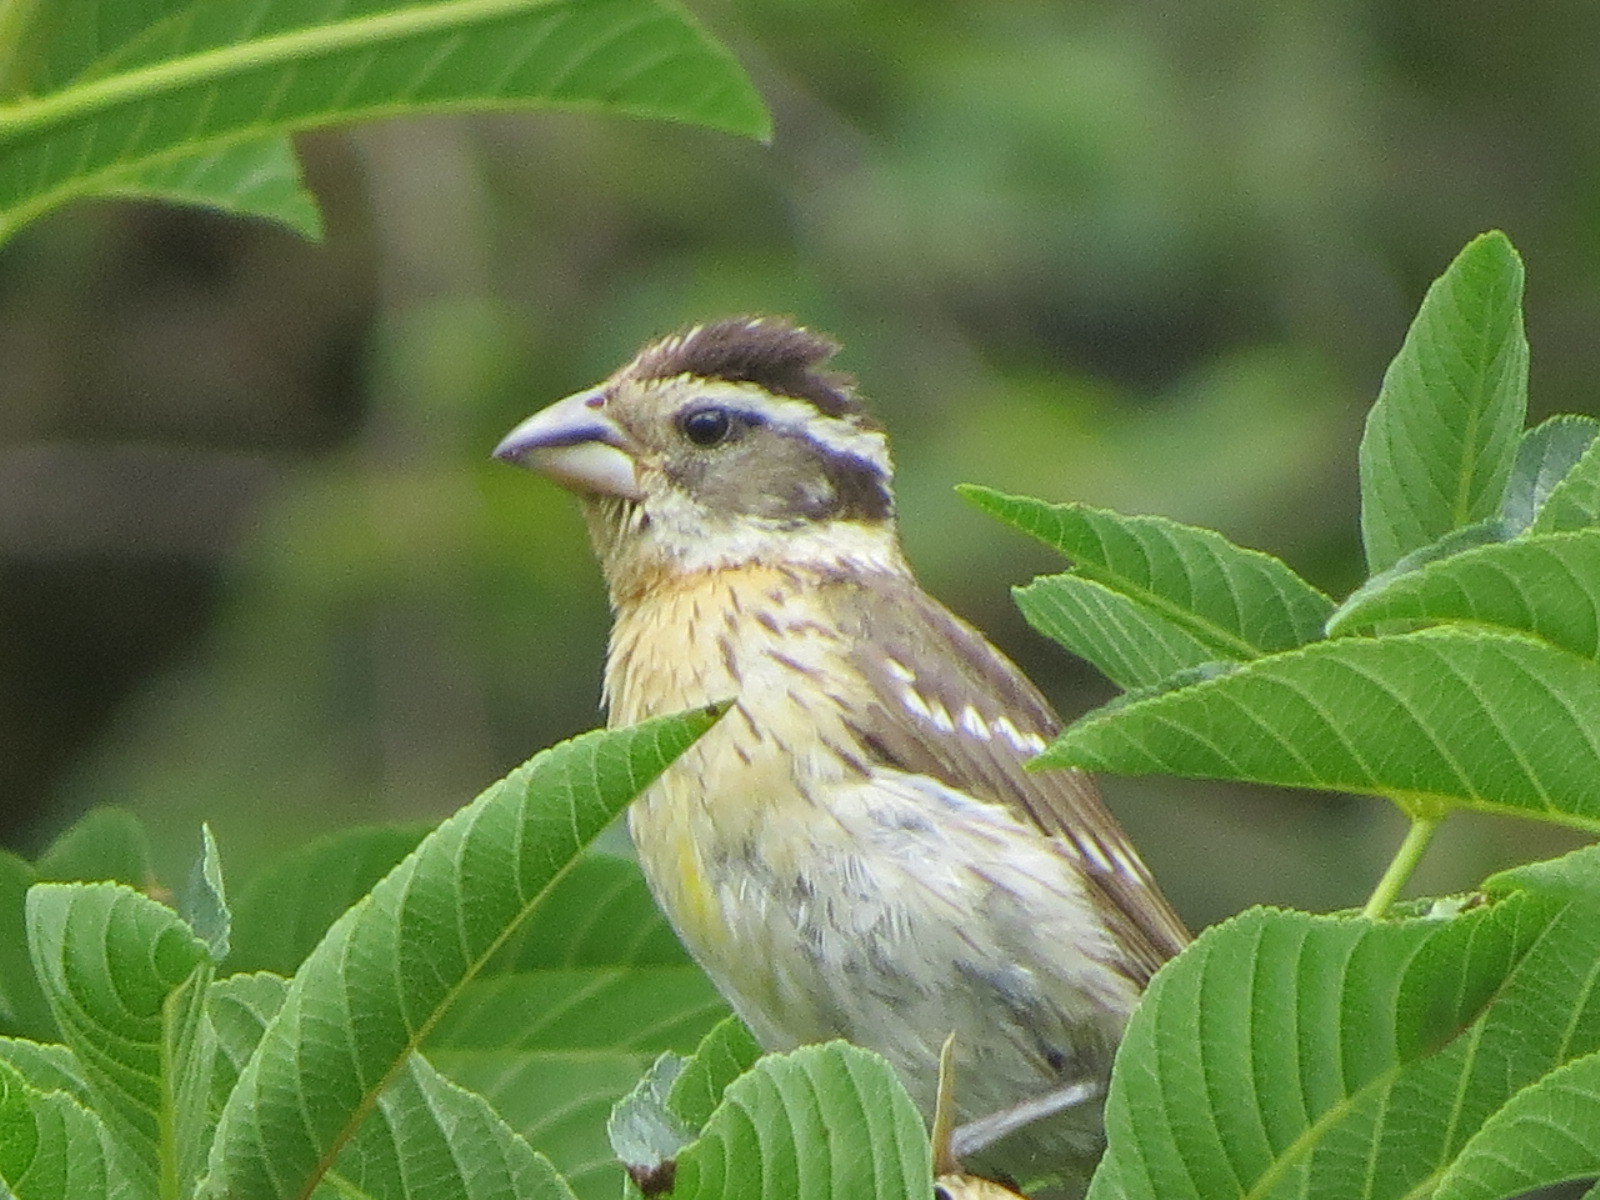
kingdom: Animalia
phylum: Chordata
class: Aves
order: Passeriformes
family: Cardinalidae
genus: Pheucticus
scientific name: Pheucticus melanocephalus
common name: Black-headed grosbeak
